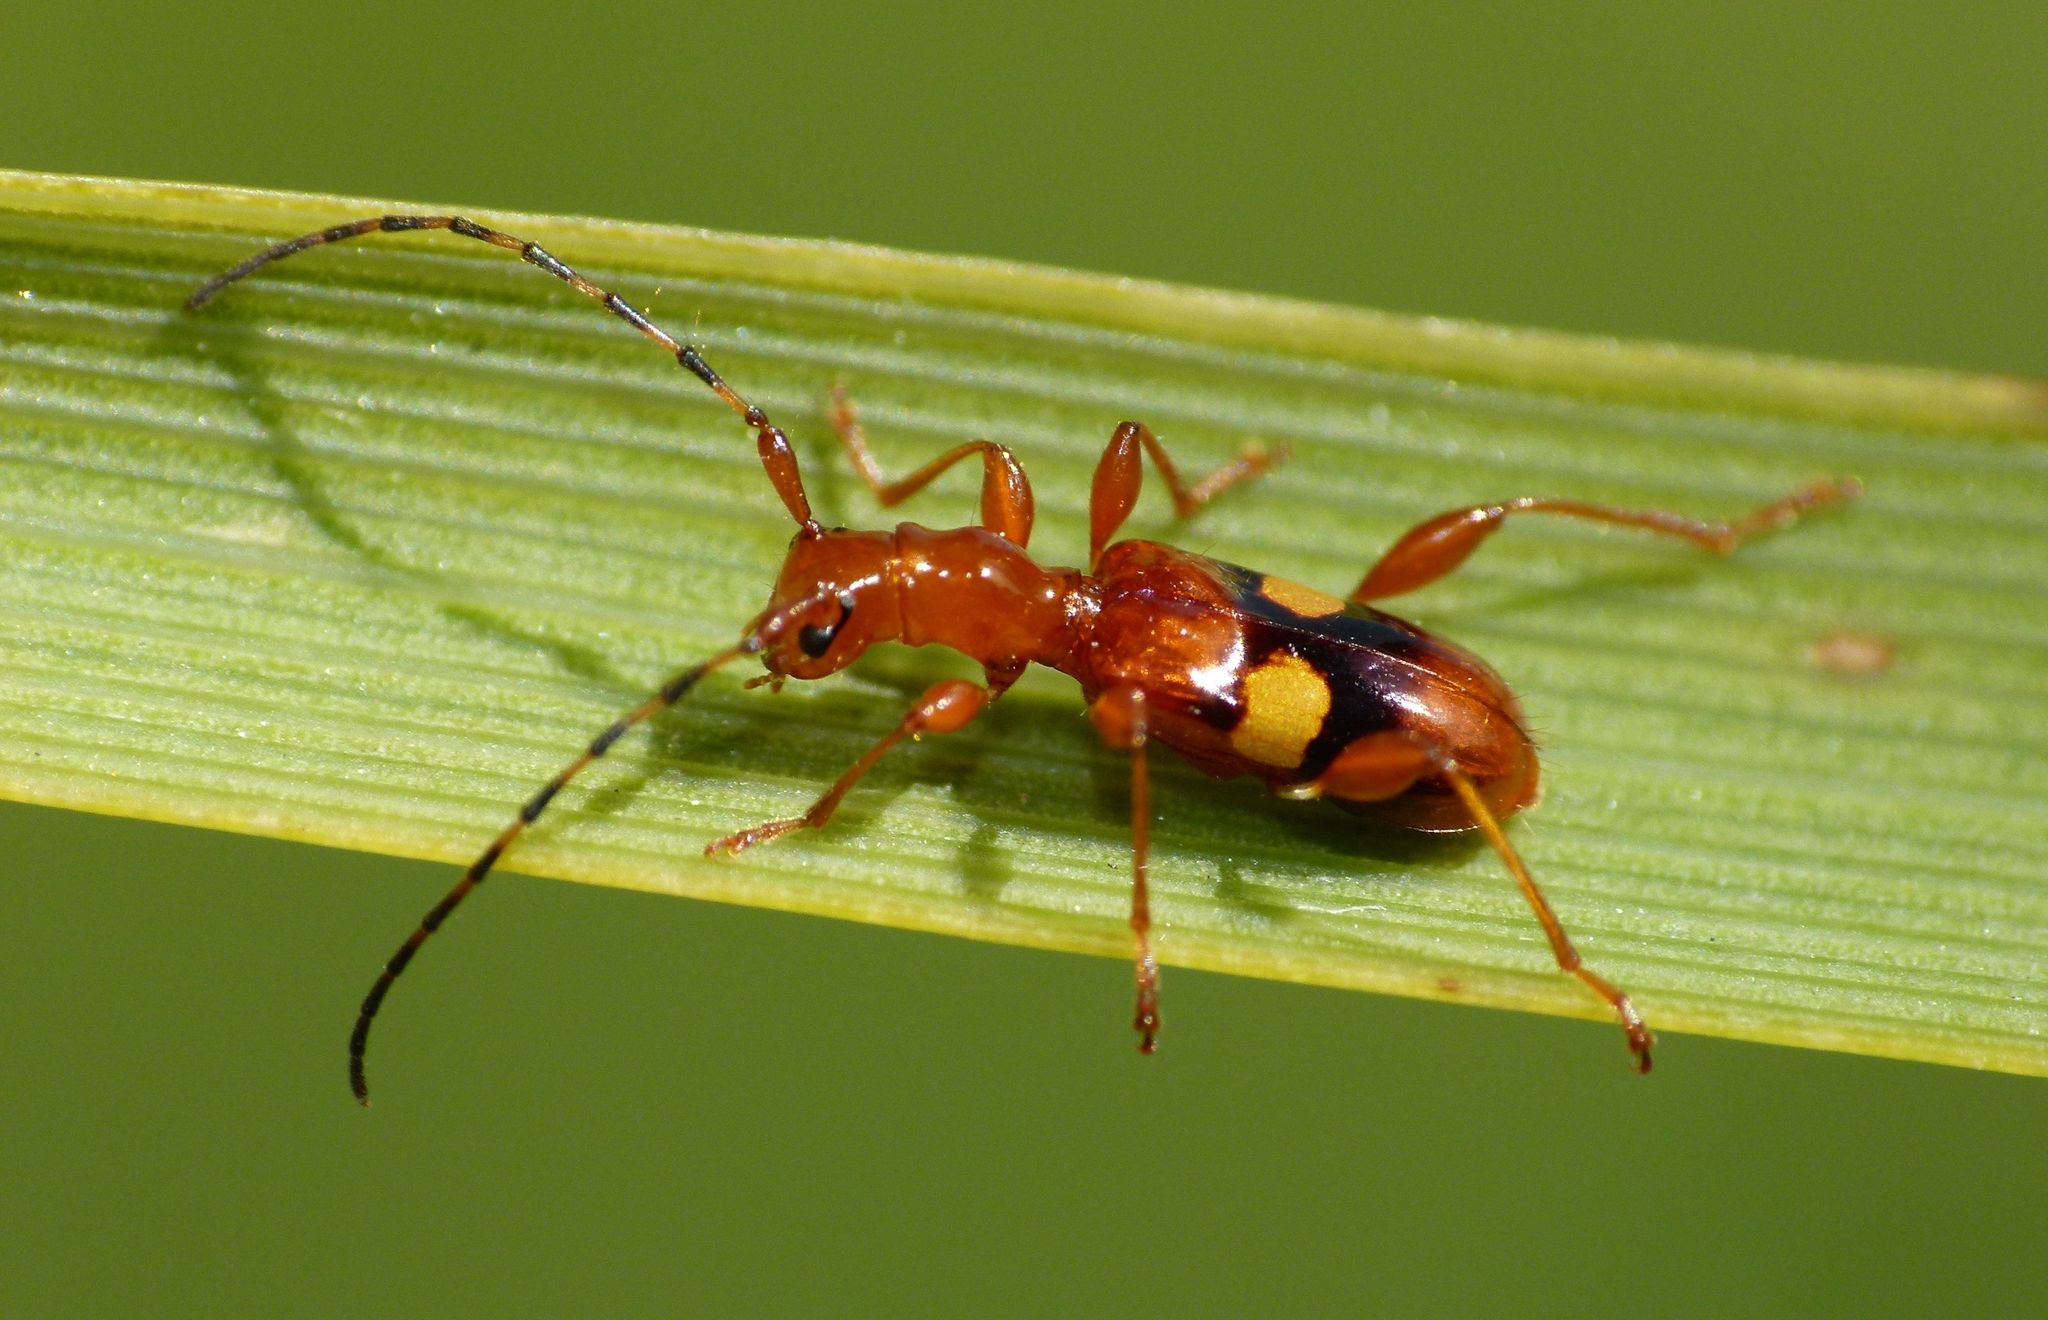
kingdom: Animalia
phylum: Arthropoda
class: Insecta
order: Coleoptera
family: Cerambycidae
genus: Zorion
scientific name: Zorion australe
